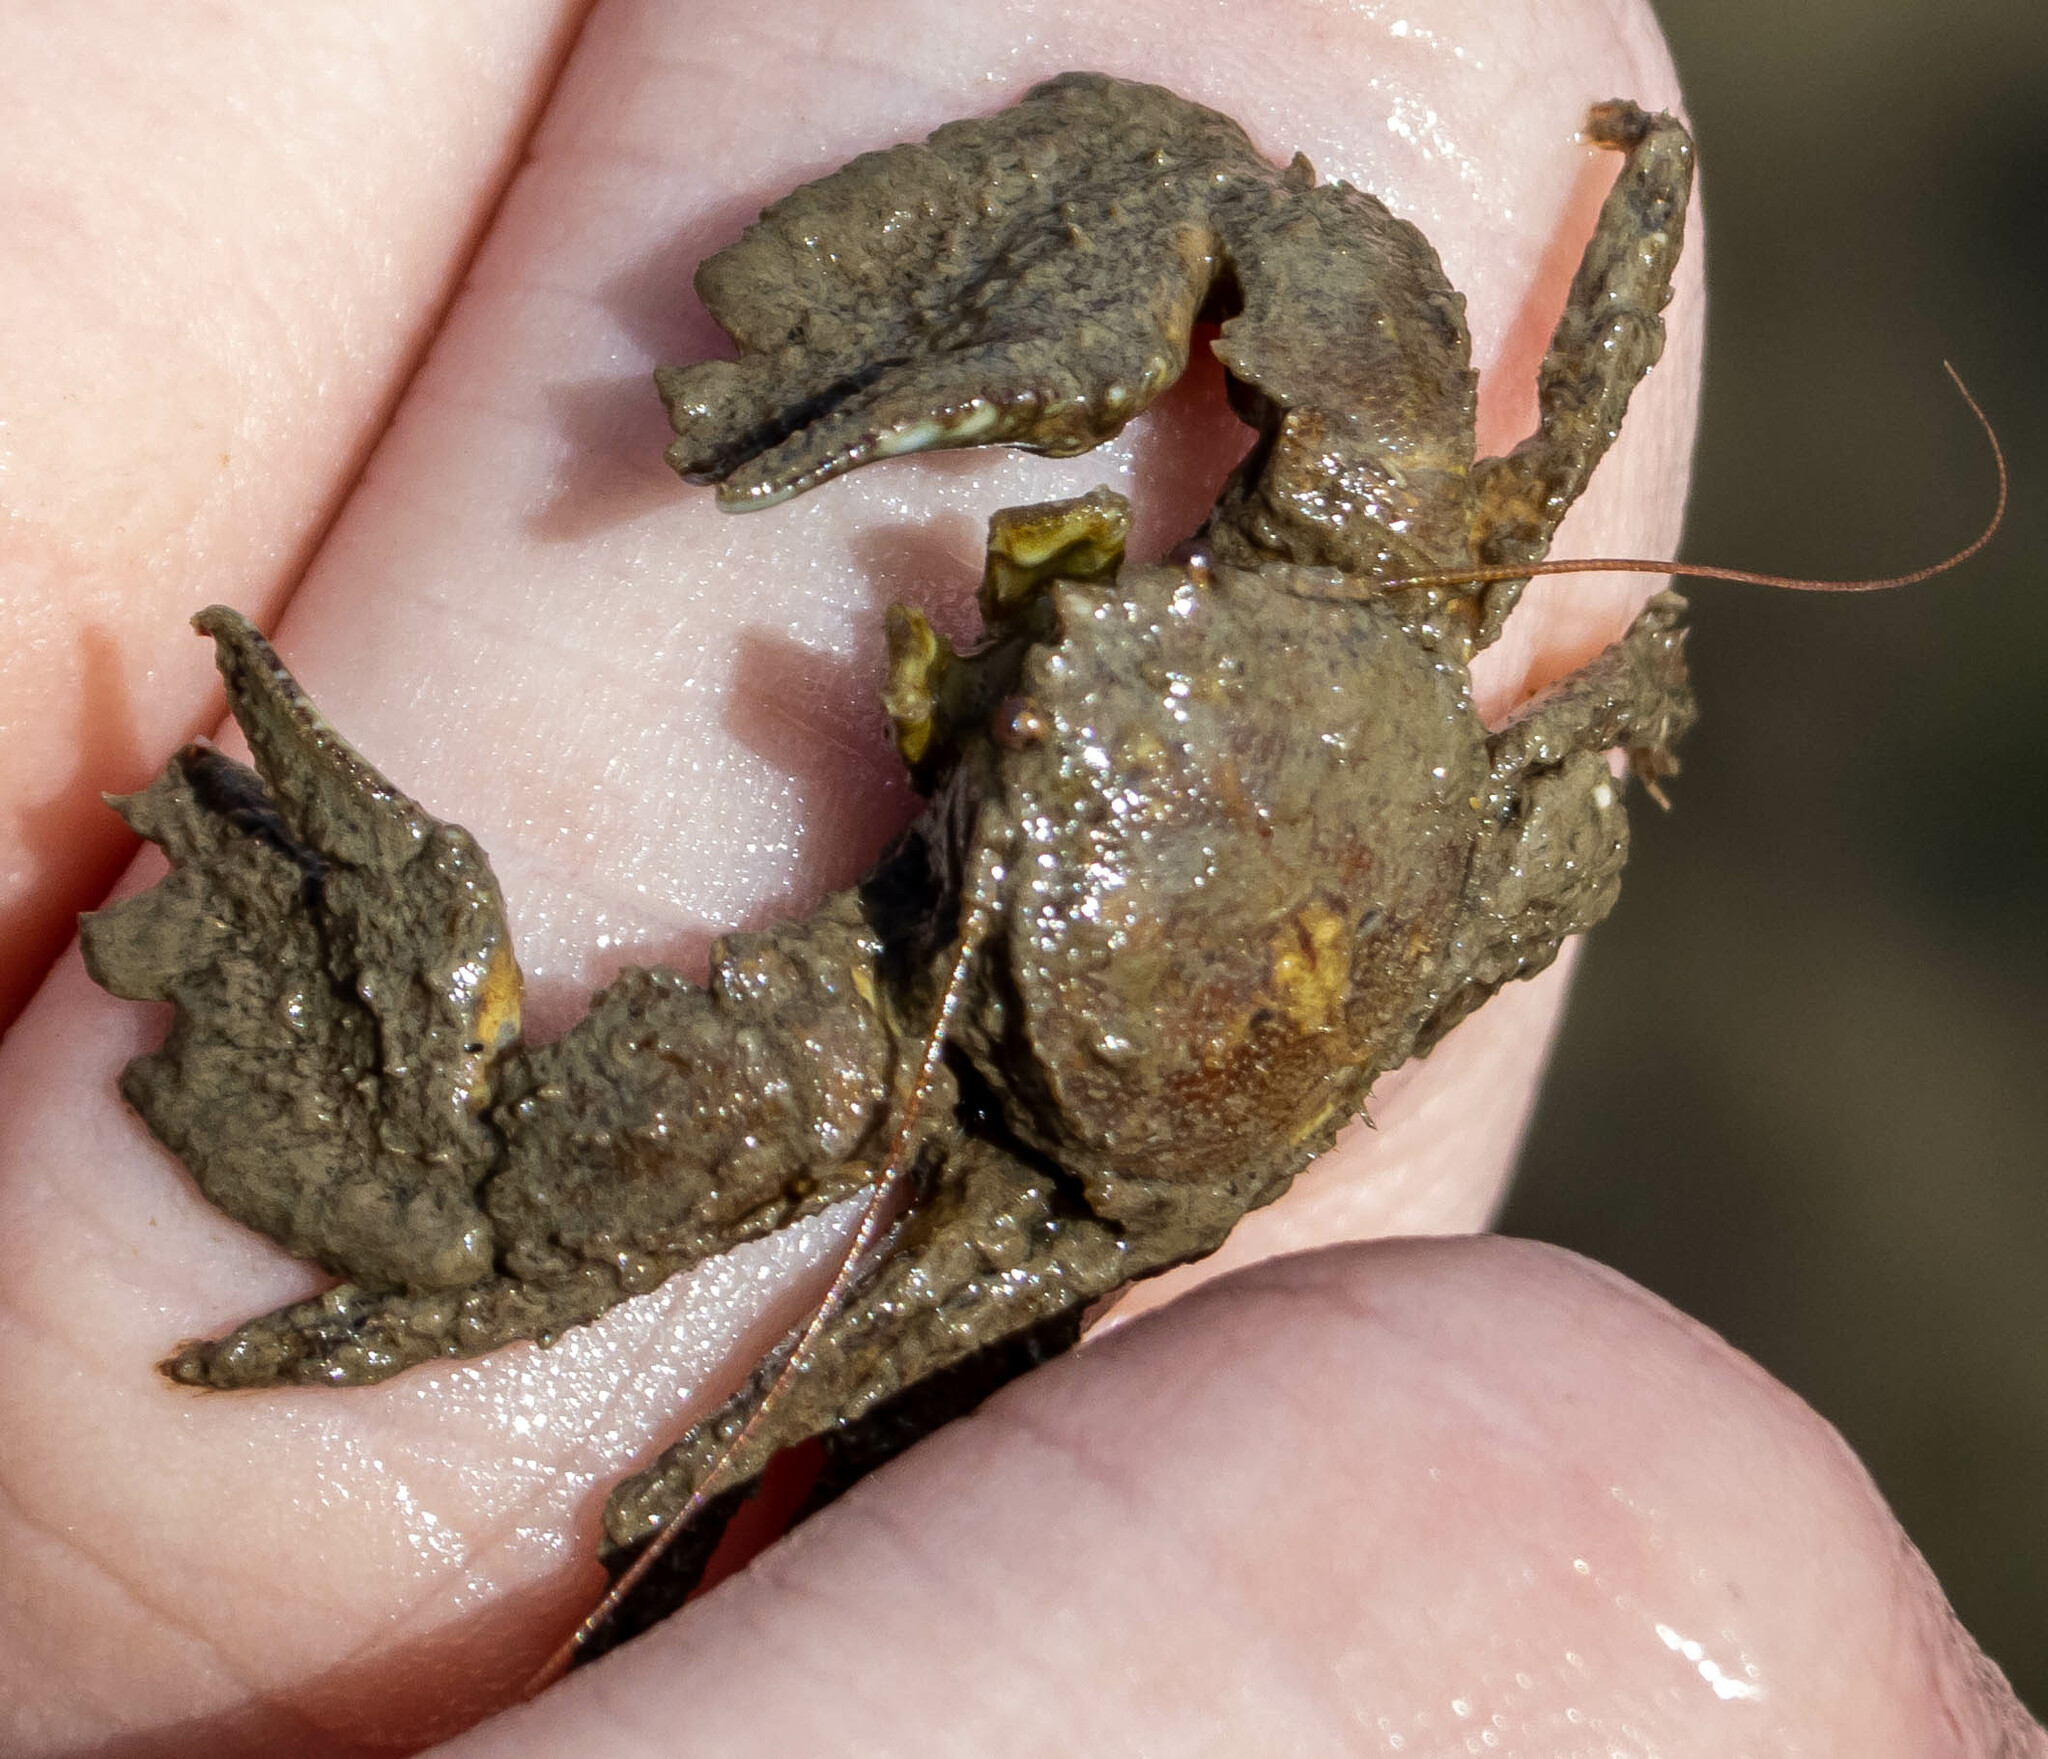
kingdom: Animalia
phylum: Arthropoda
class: Malacostraca
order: Decapoda
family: Porcellanidae
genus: Porcellana
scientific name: Porcellana platycheles
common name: Porcelain crab
